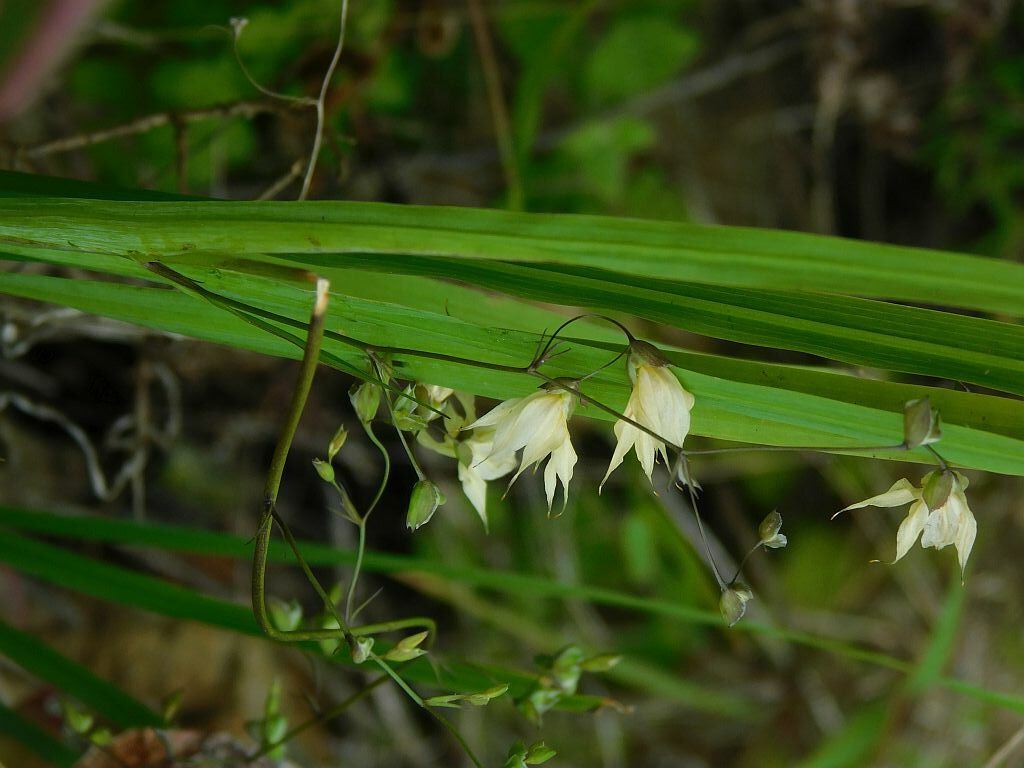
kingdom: Plantae
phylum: Tracheophyta
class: Liliopsida
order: Asparagales
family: Iridaceae
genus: Melasphaerula
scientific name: Melasphaerula graminea
